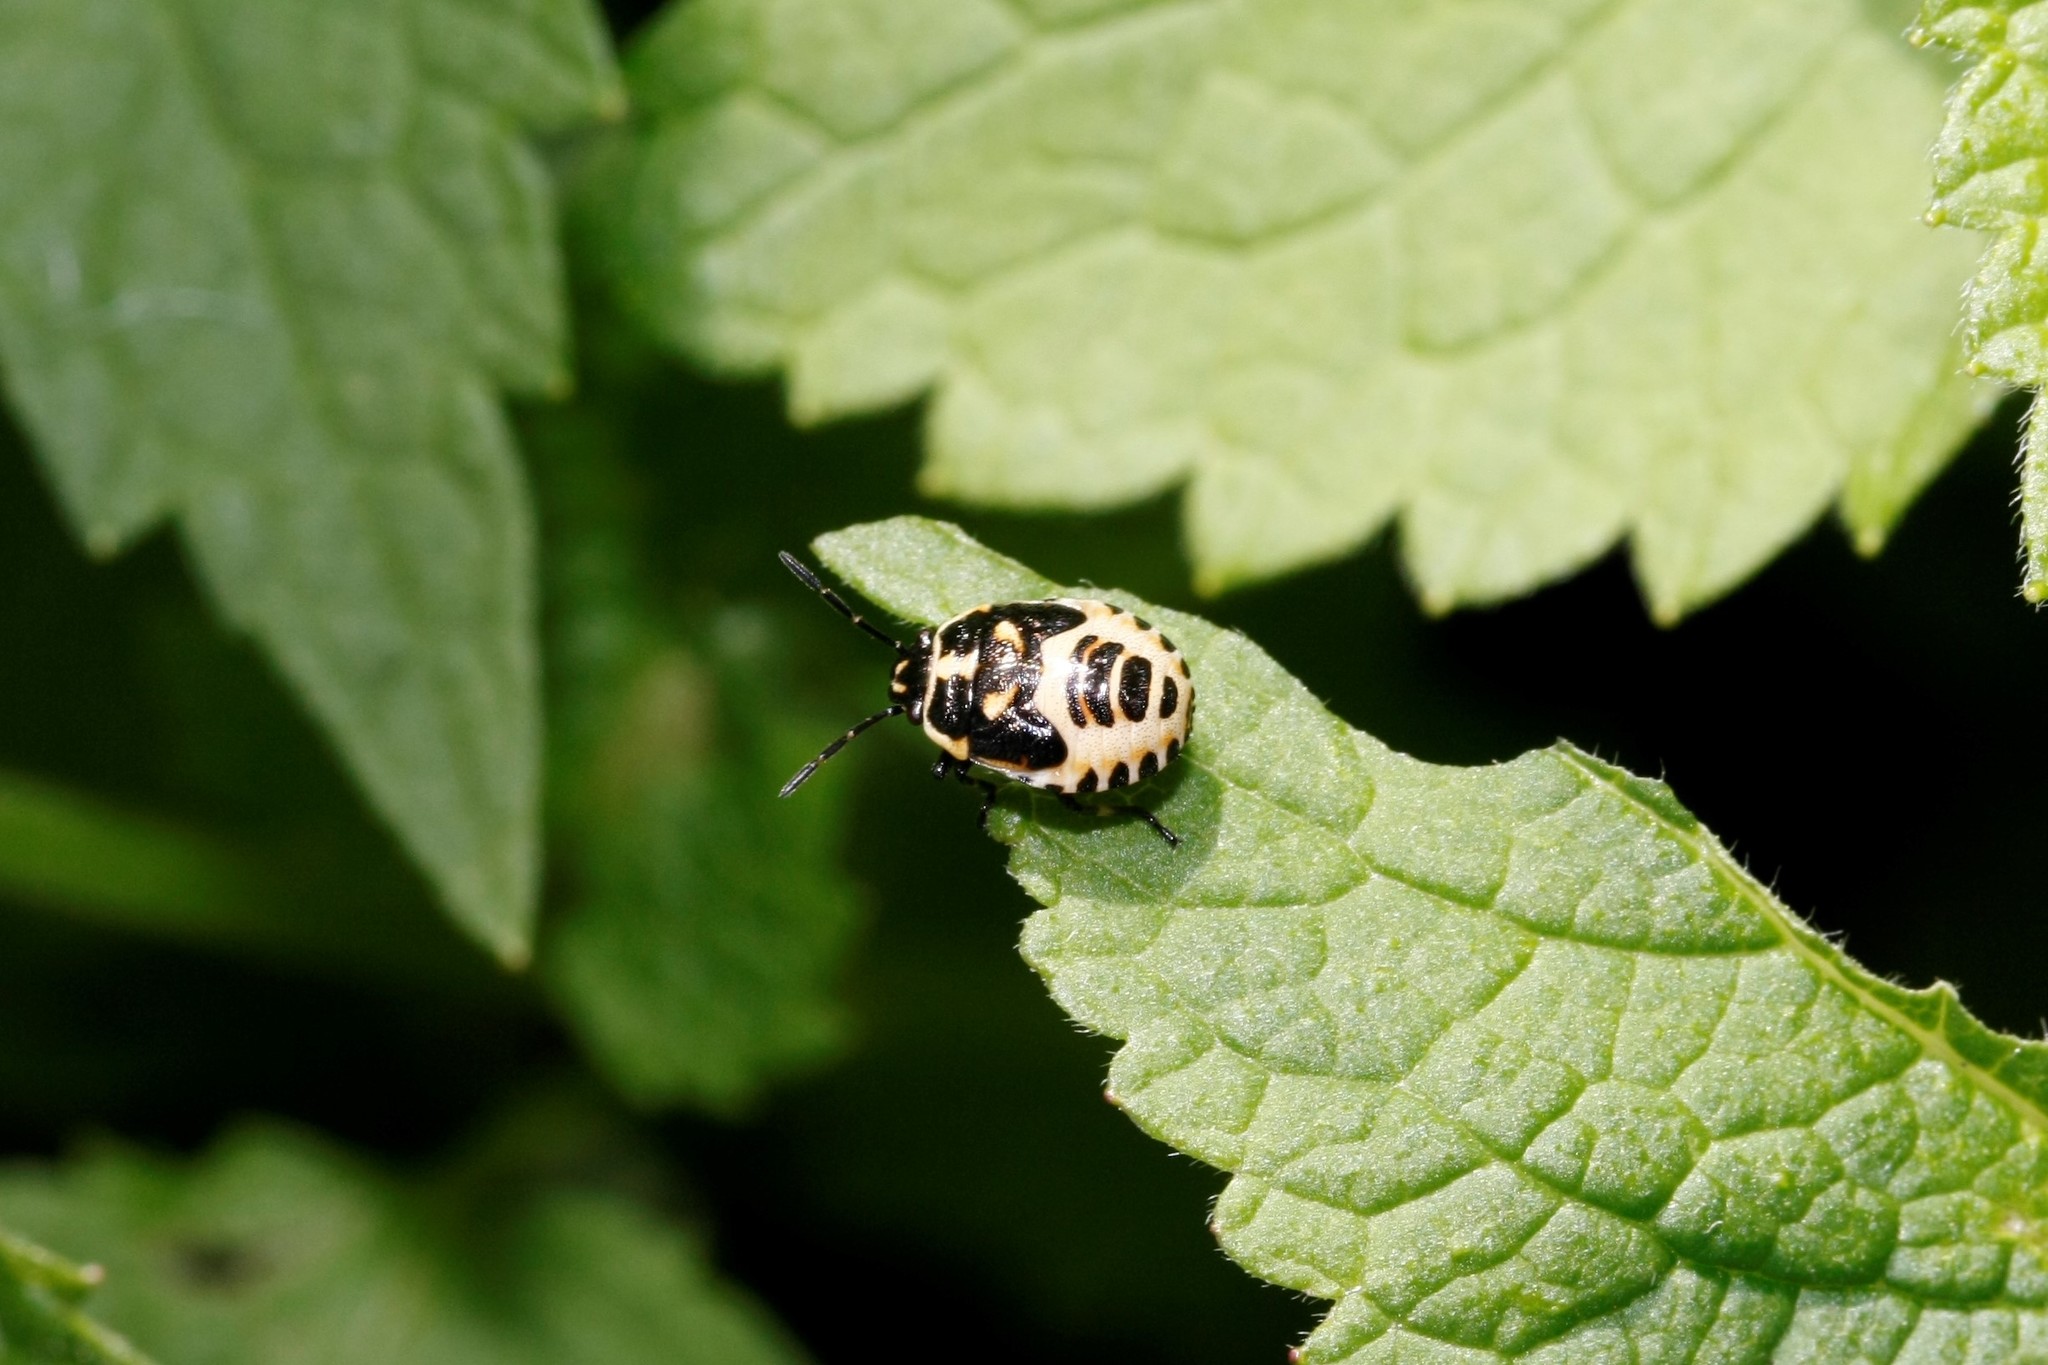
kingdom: Animalia
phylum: Arthropoda
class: Insecta
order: Hemiptera
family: Pentatomidae
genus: Eurydema
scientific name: Eurydema oleracea
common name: Cabbage bug
